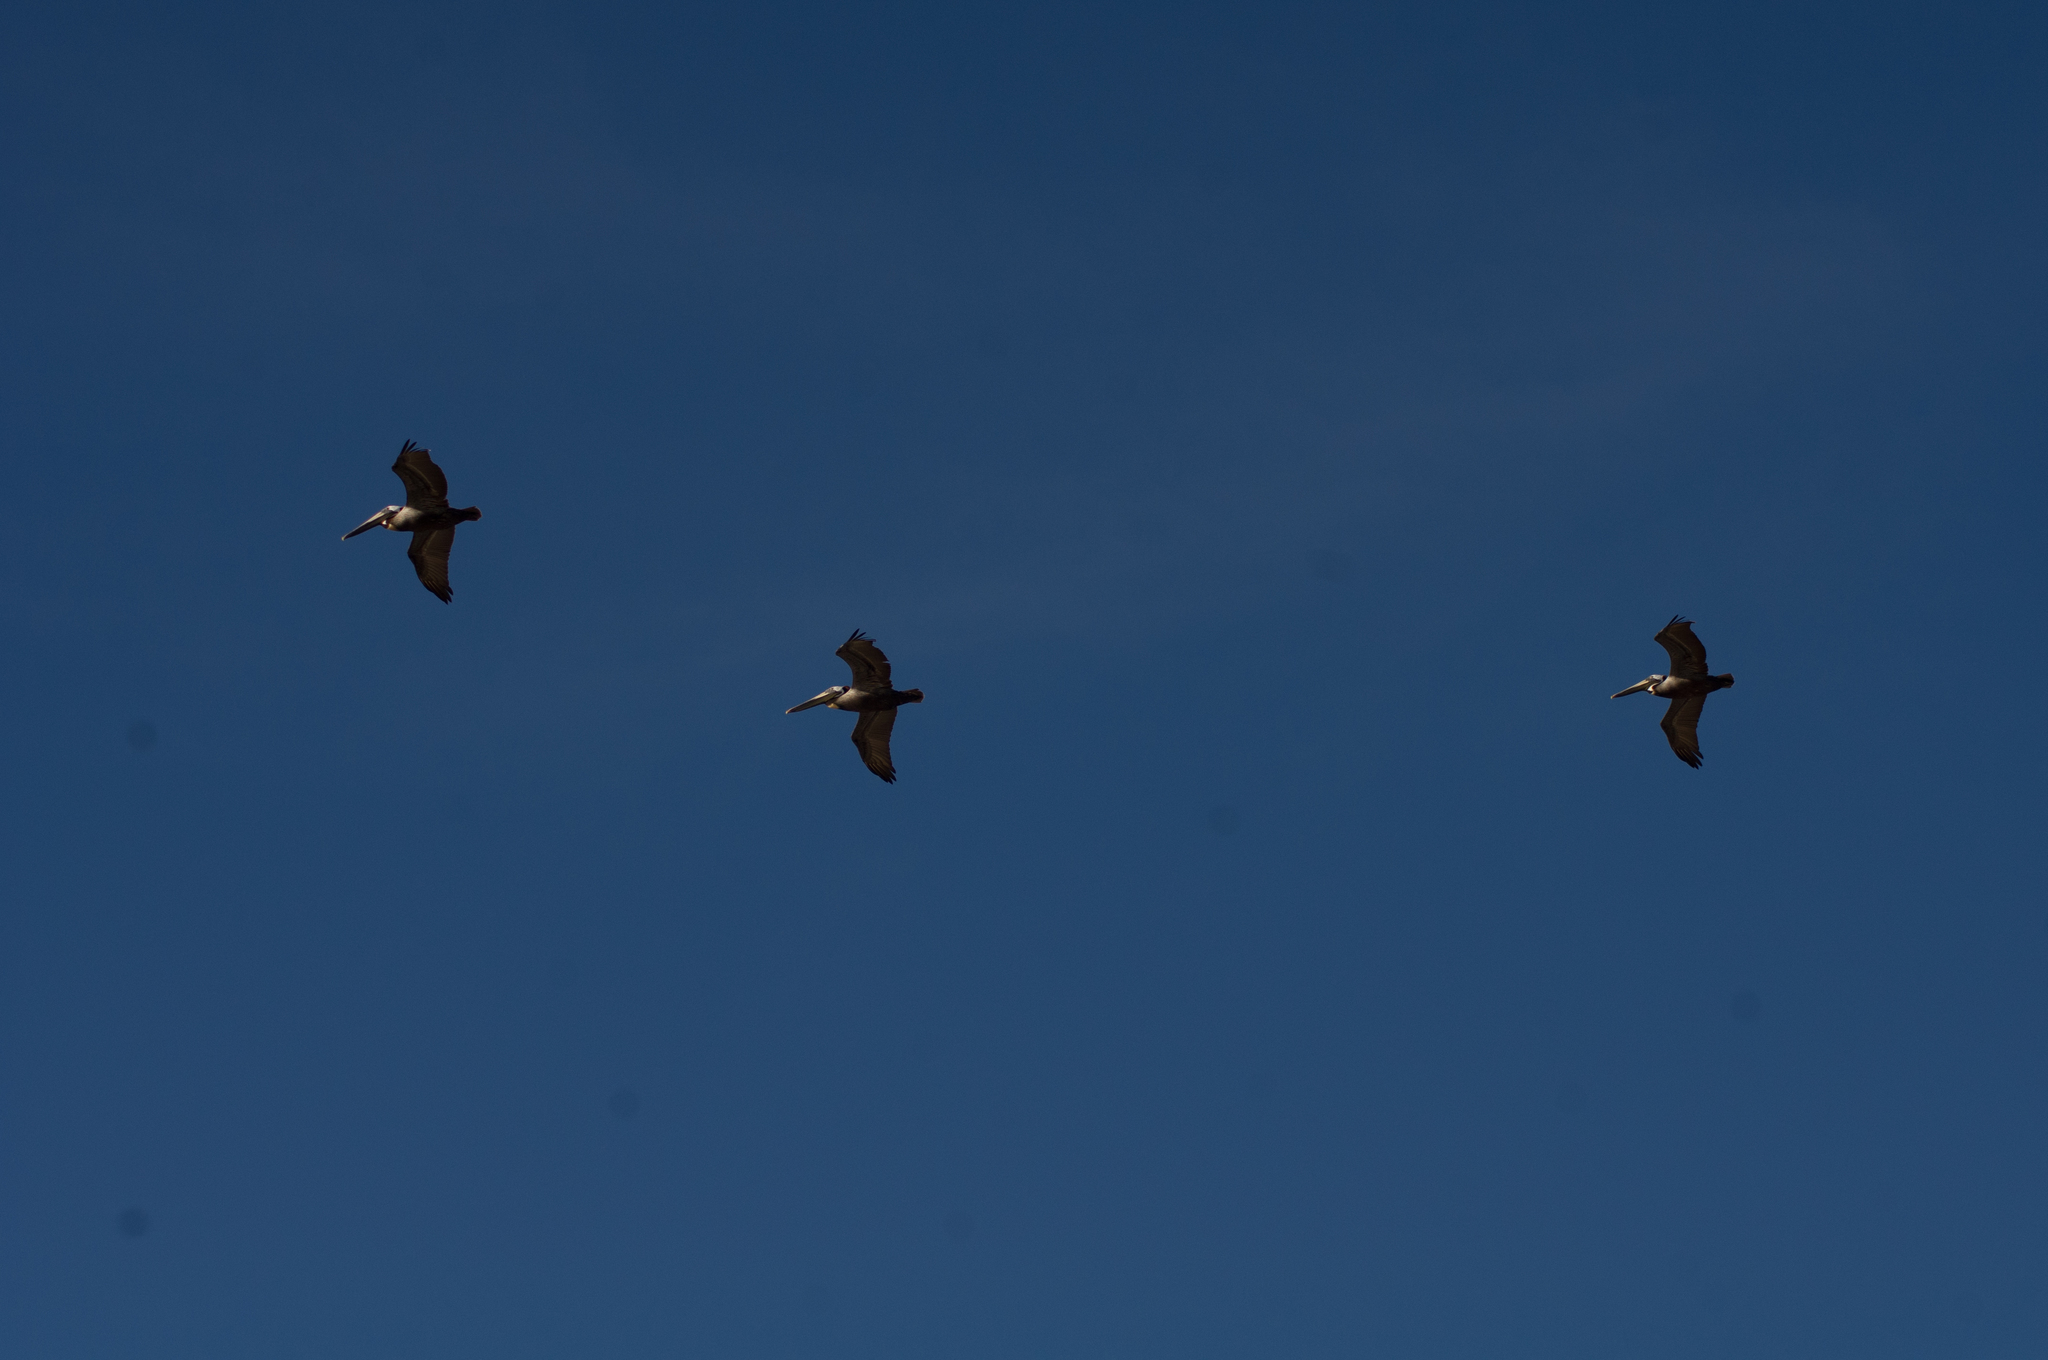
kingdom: Animalia
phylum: Chordata
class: Aves
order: Pelecaniformes
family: Pelecanidae
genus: Pelecanus
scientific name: Pelecanus occidentalis
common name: Brown pelican
